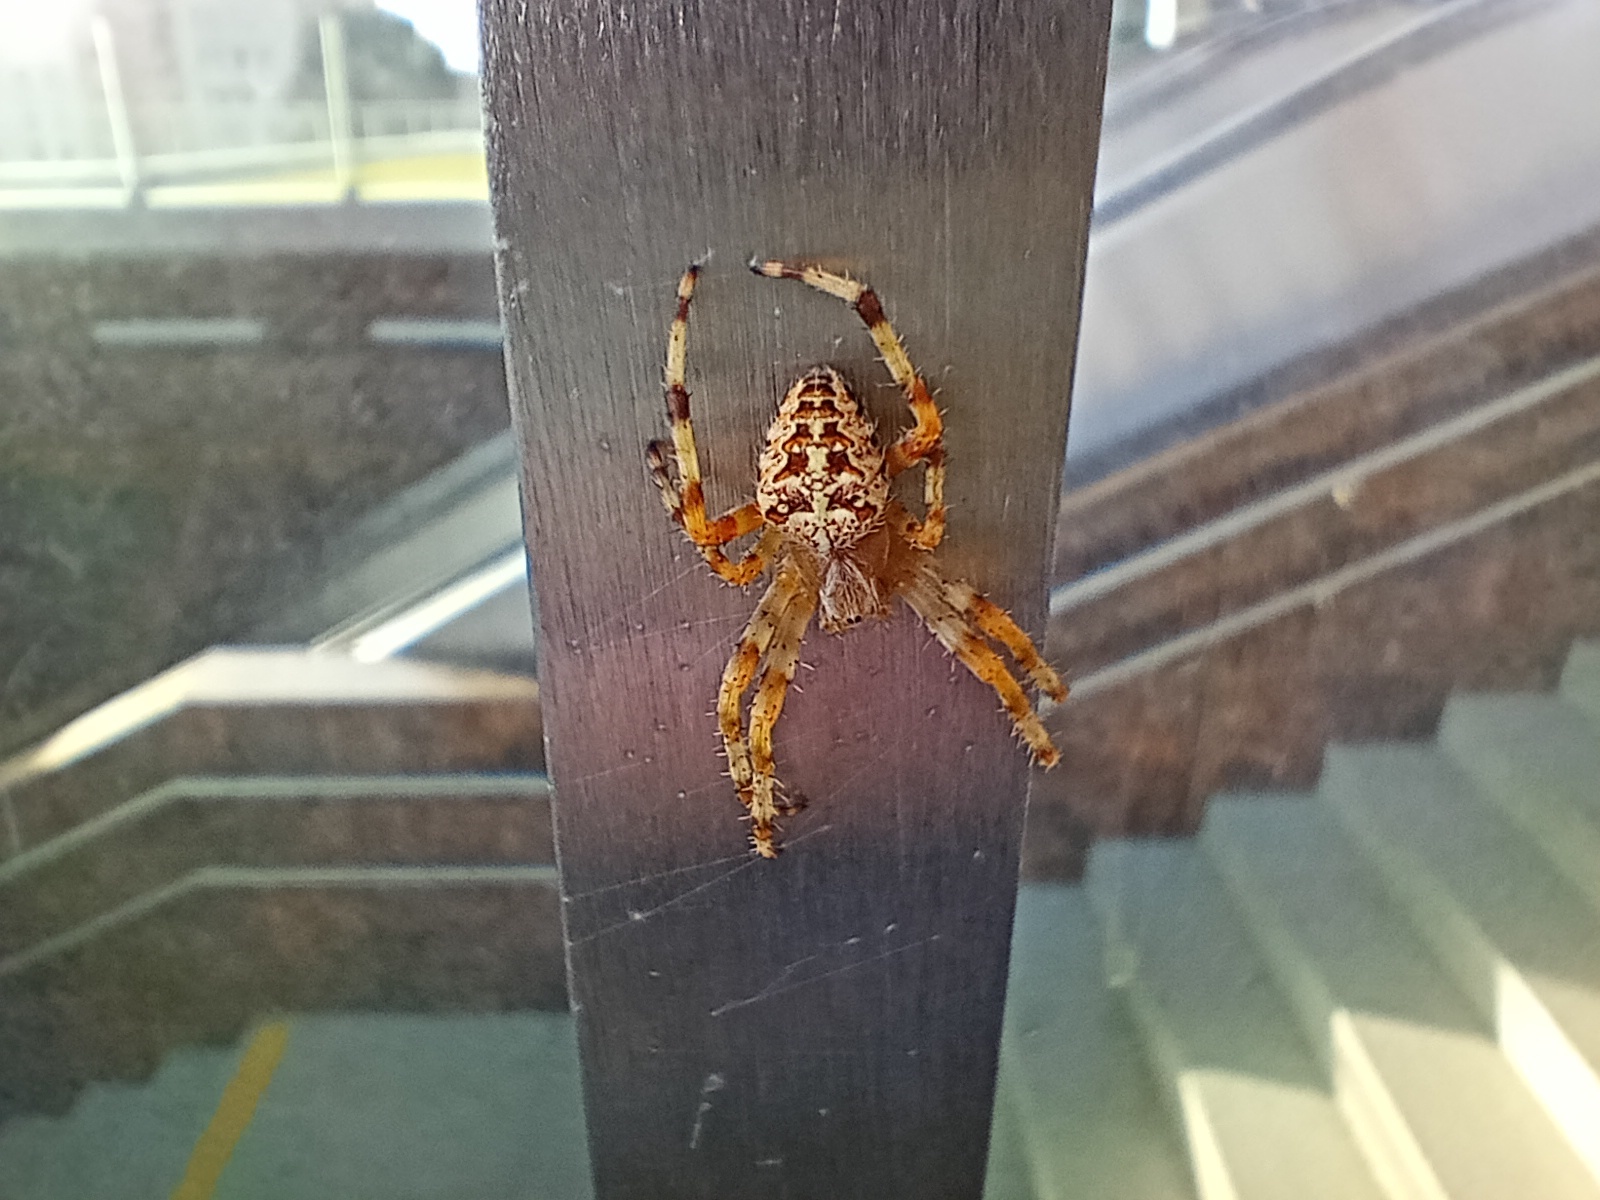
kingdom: Animalia
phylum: Arthropoda
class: Arachnida
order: Araneae
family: Araneidae
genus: Araneus
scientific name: Araneus diadematus
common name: Cross orbweaver
